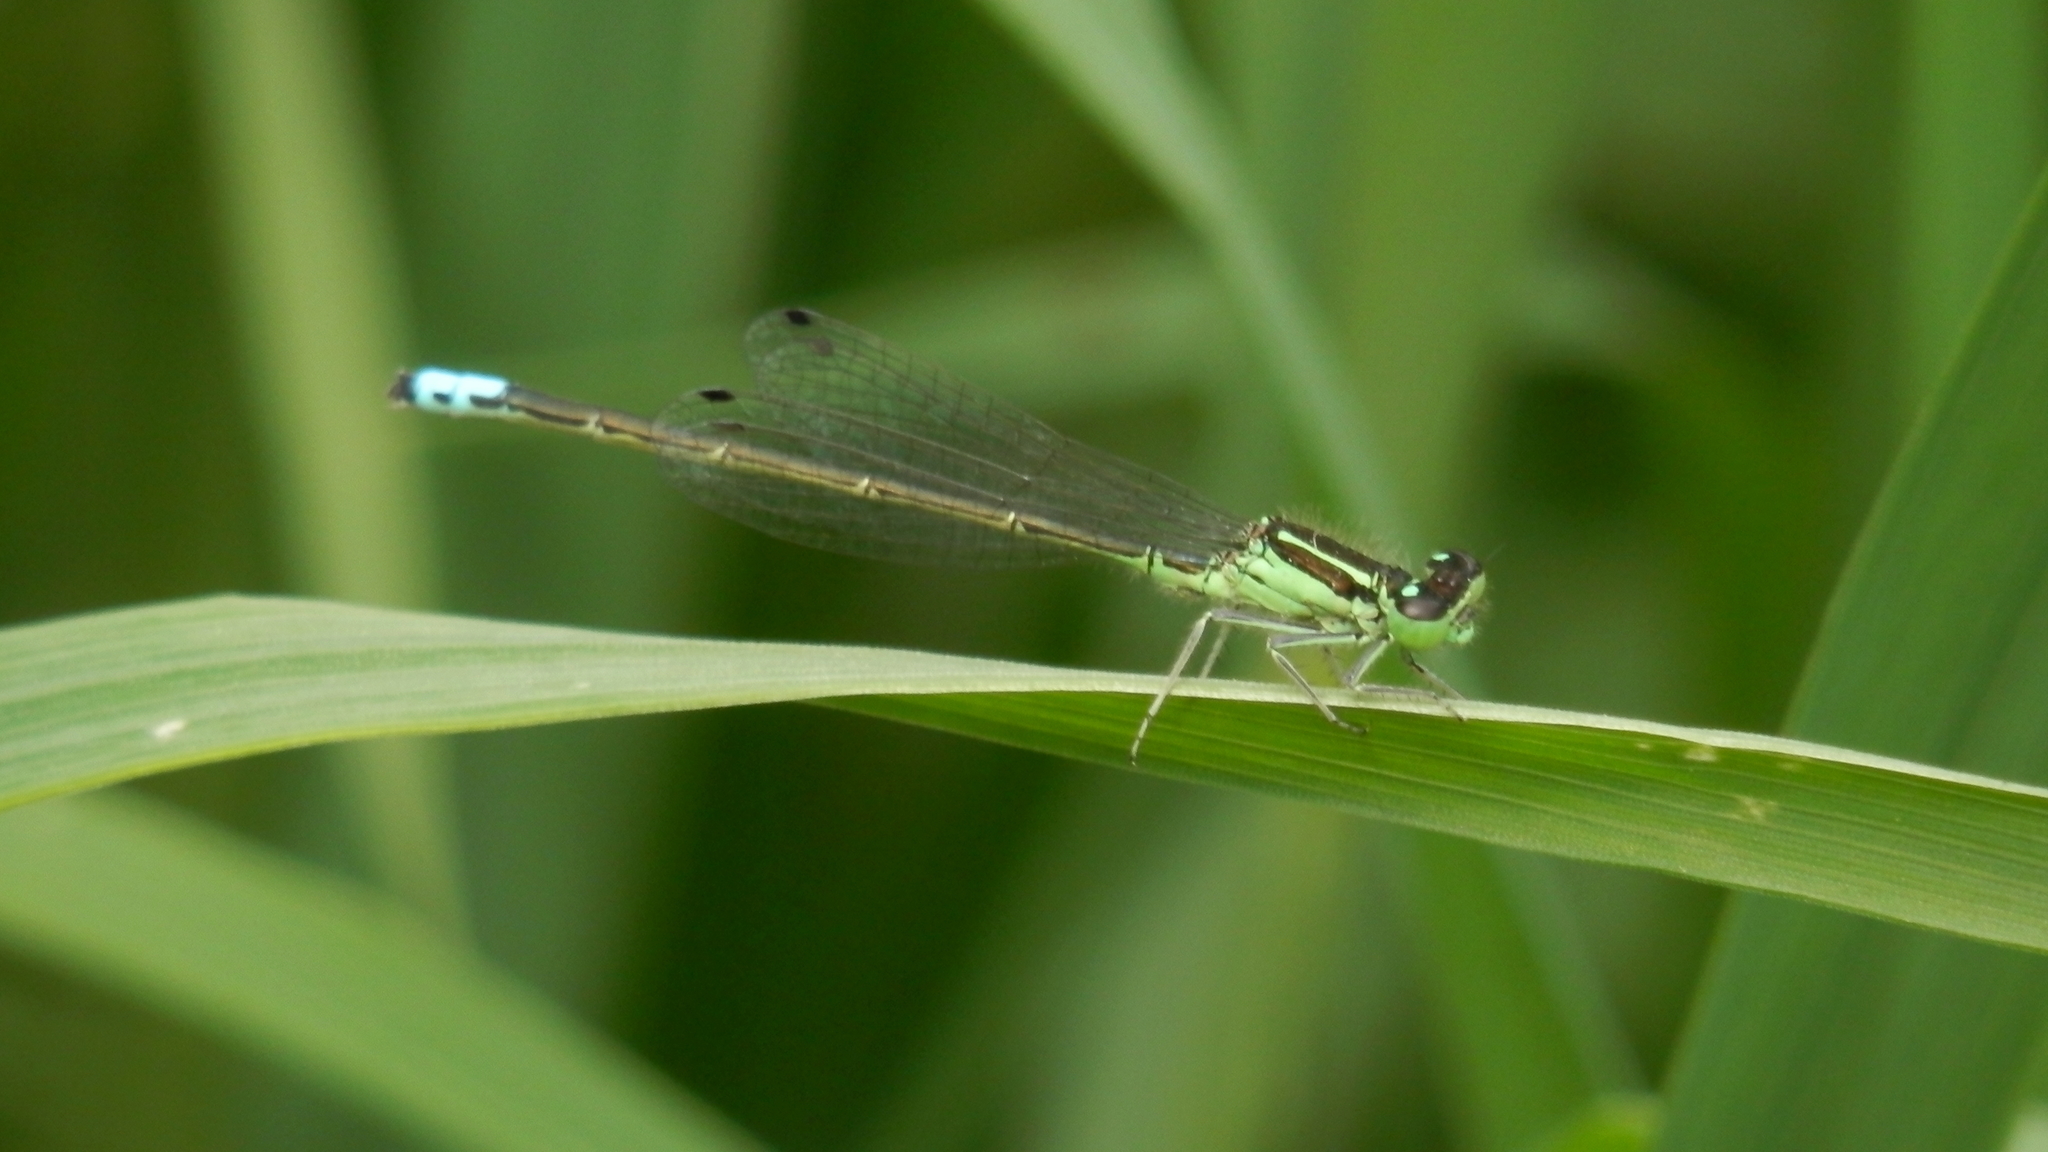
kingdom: Animalia
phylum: Arthropoda
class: Insecta
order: Odonata
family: Coenagrionidae
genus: Ischnura
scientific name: Ischnura verticalis
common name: Eastern forktail
